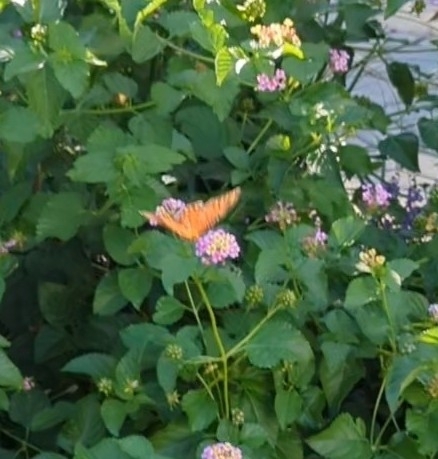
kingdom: Animalia
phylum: Arthropoda
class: Insecta
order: Lepidoptera
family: Nymphalidae
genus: Dione
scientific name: Dione vanillae
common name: Gulf fritillary
